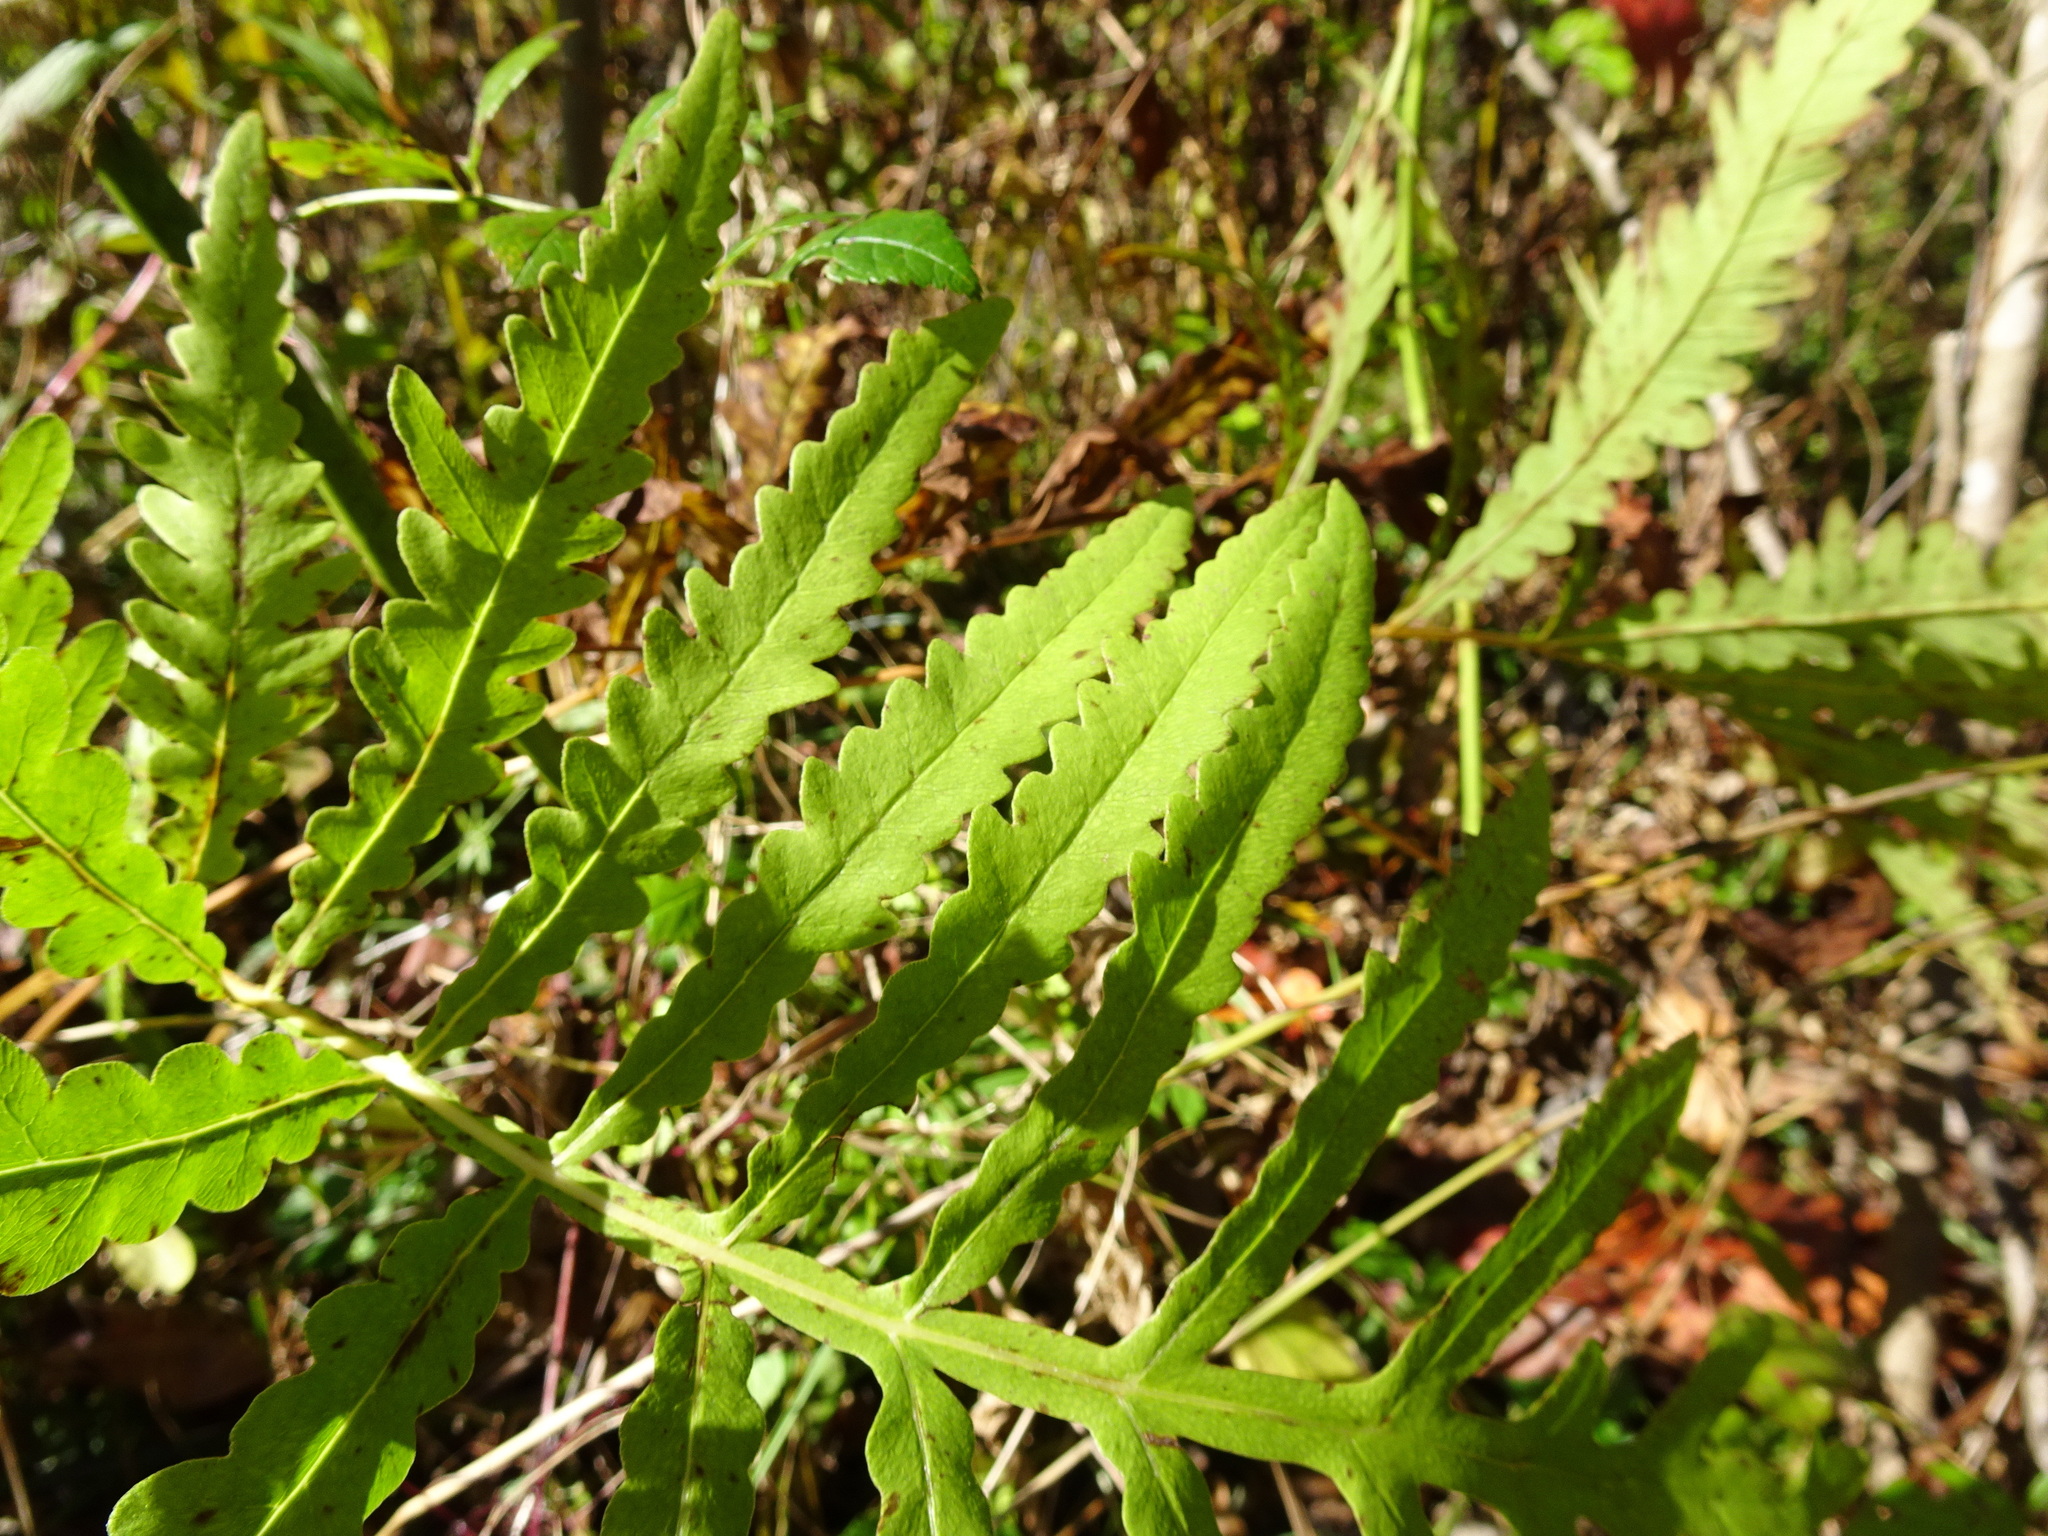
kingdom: Plantae
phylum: Tracheophyta
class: Polypodiopsida
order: Polypodiales
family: Onocleaceae
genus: Onoclea
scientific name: Onoclea sensibilis
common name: Sensitive fern
